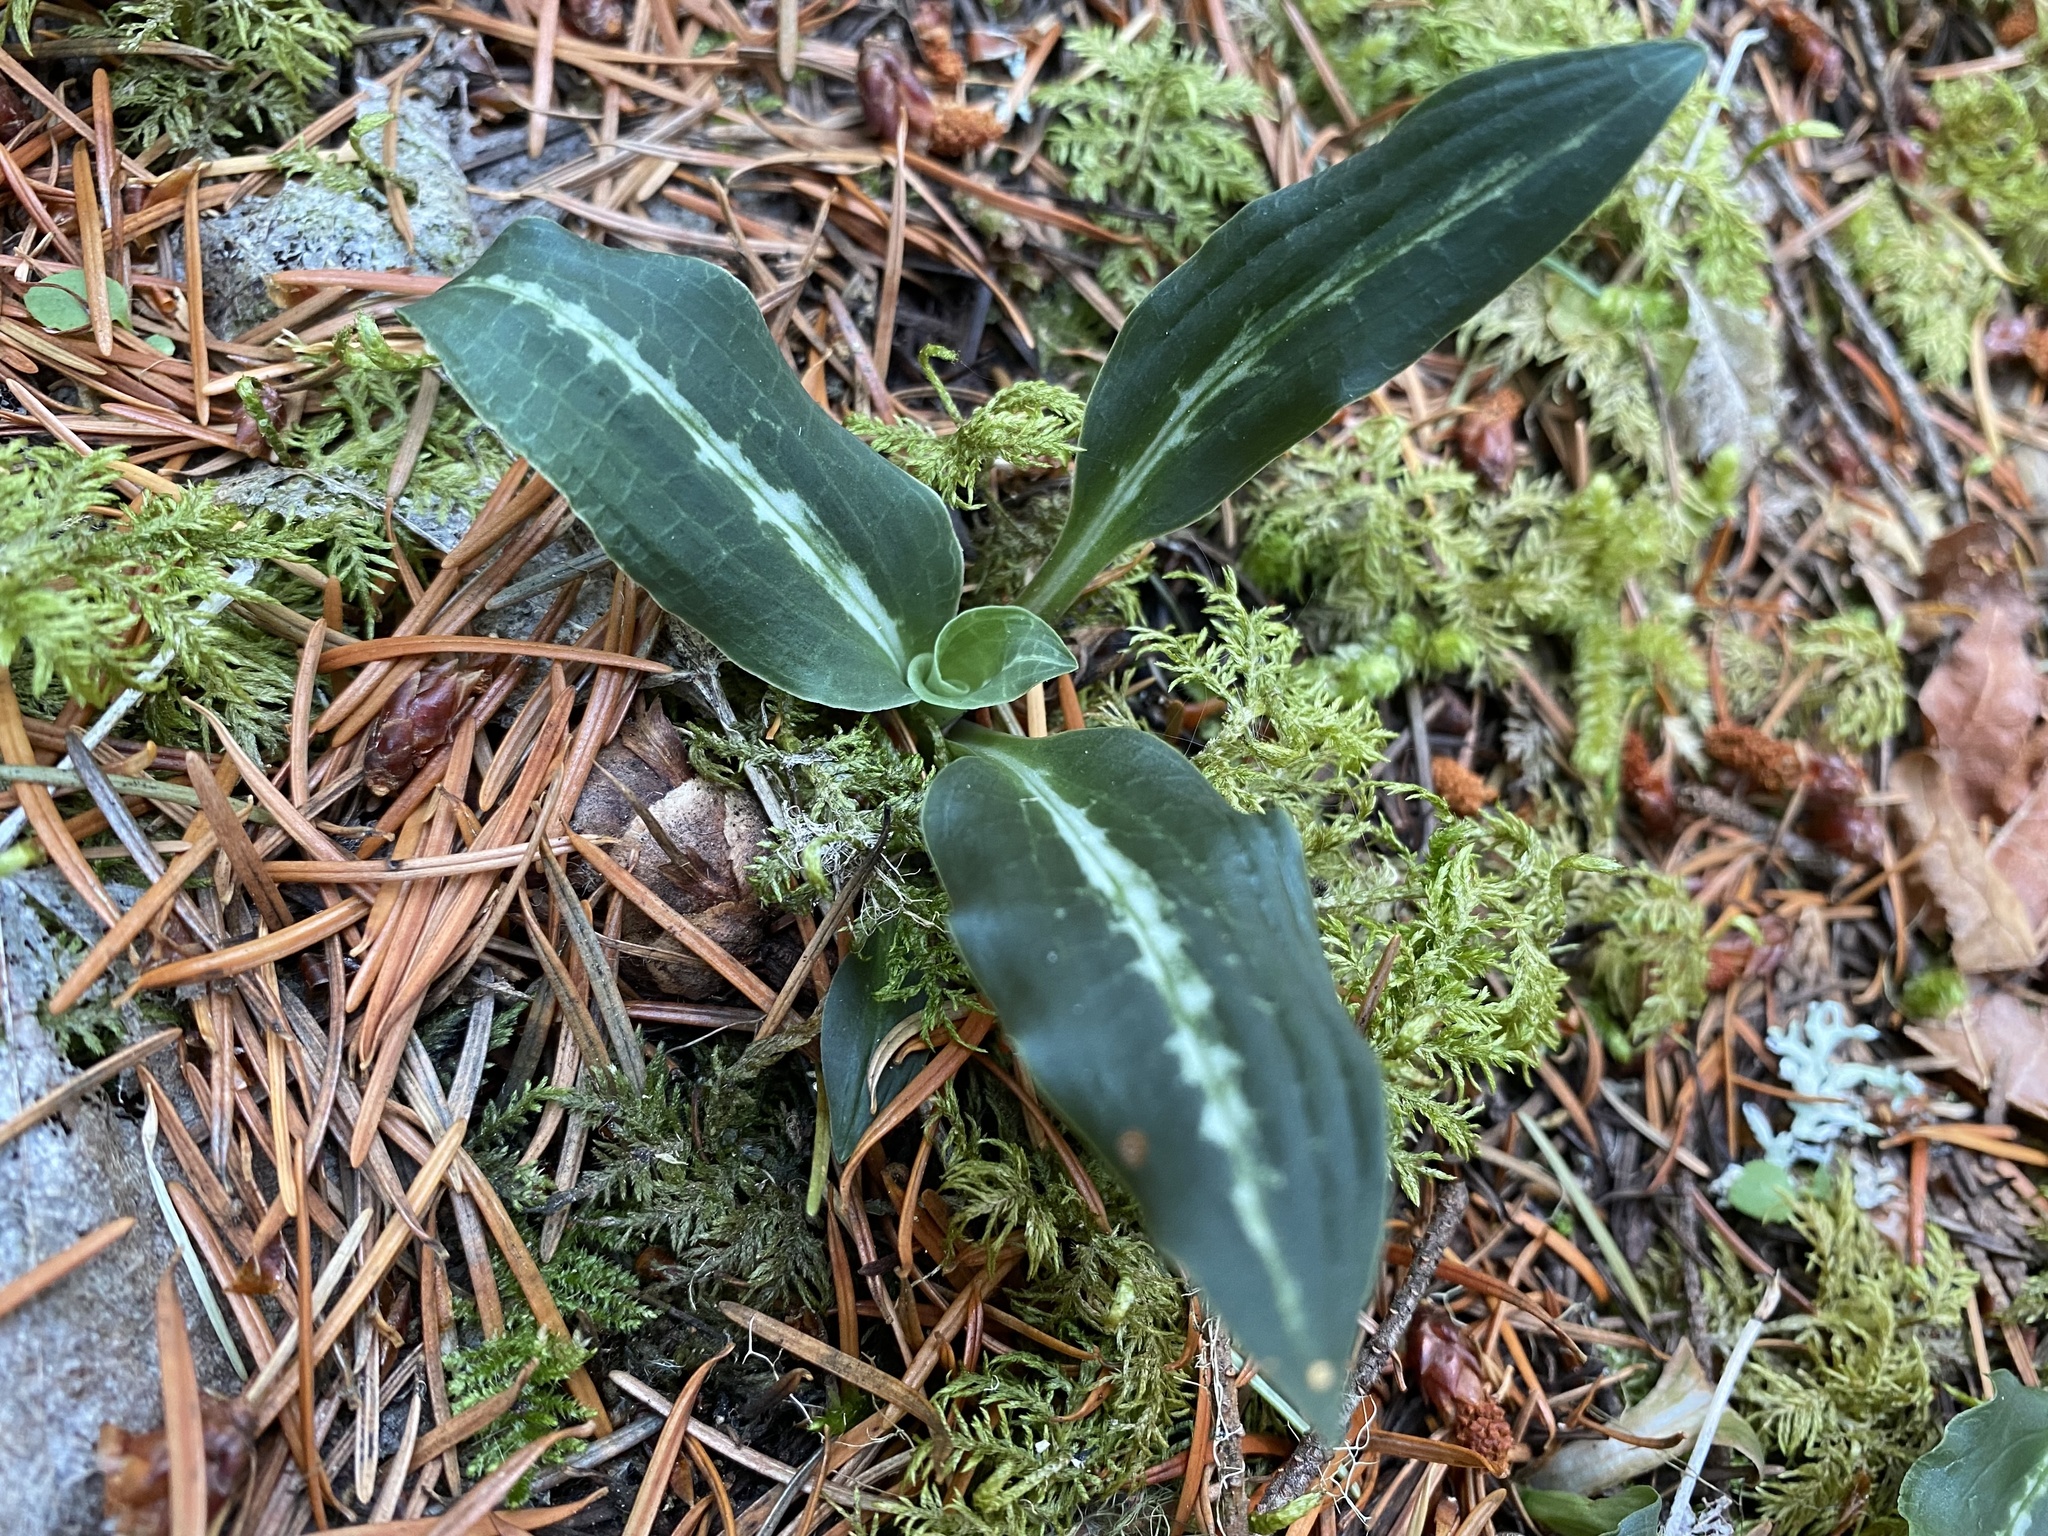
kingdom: Plantae
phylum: Tracheophyta
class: Liliopsida
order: Asparagales
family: Orchidaceae
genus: Goodyera
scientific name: Goodyera oblongifolia
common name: Giant rattlesnake-plantain
